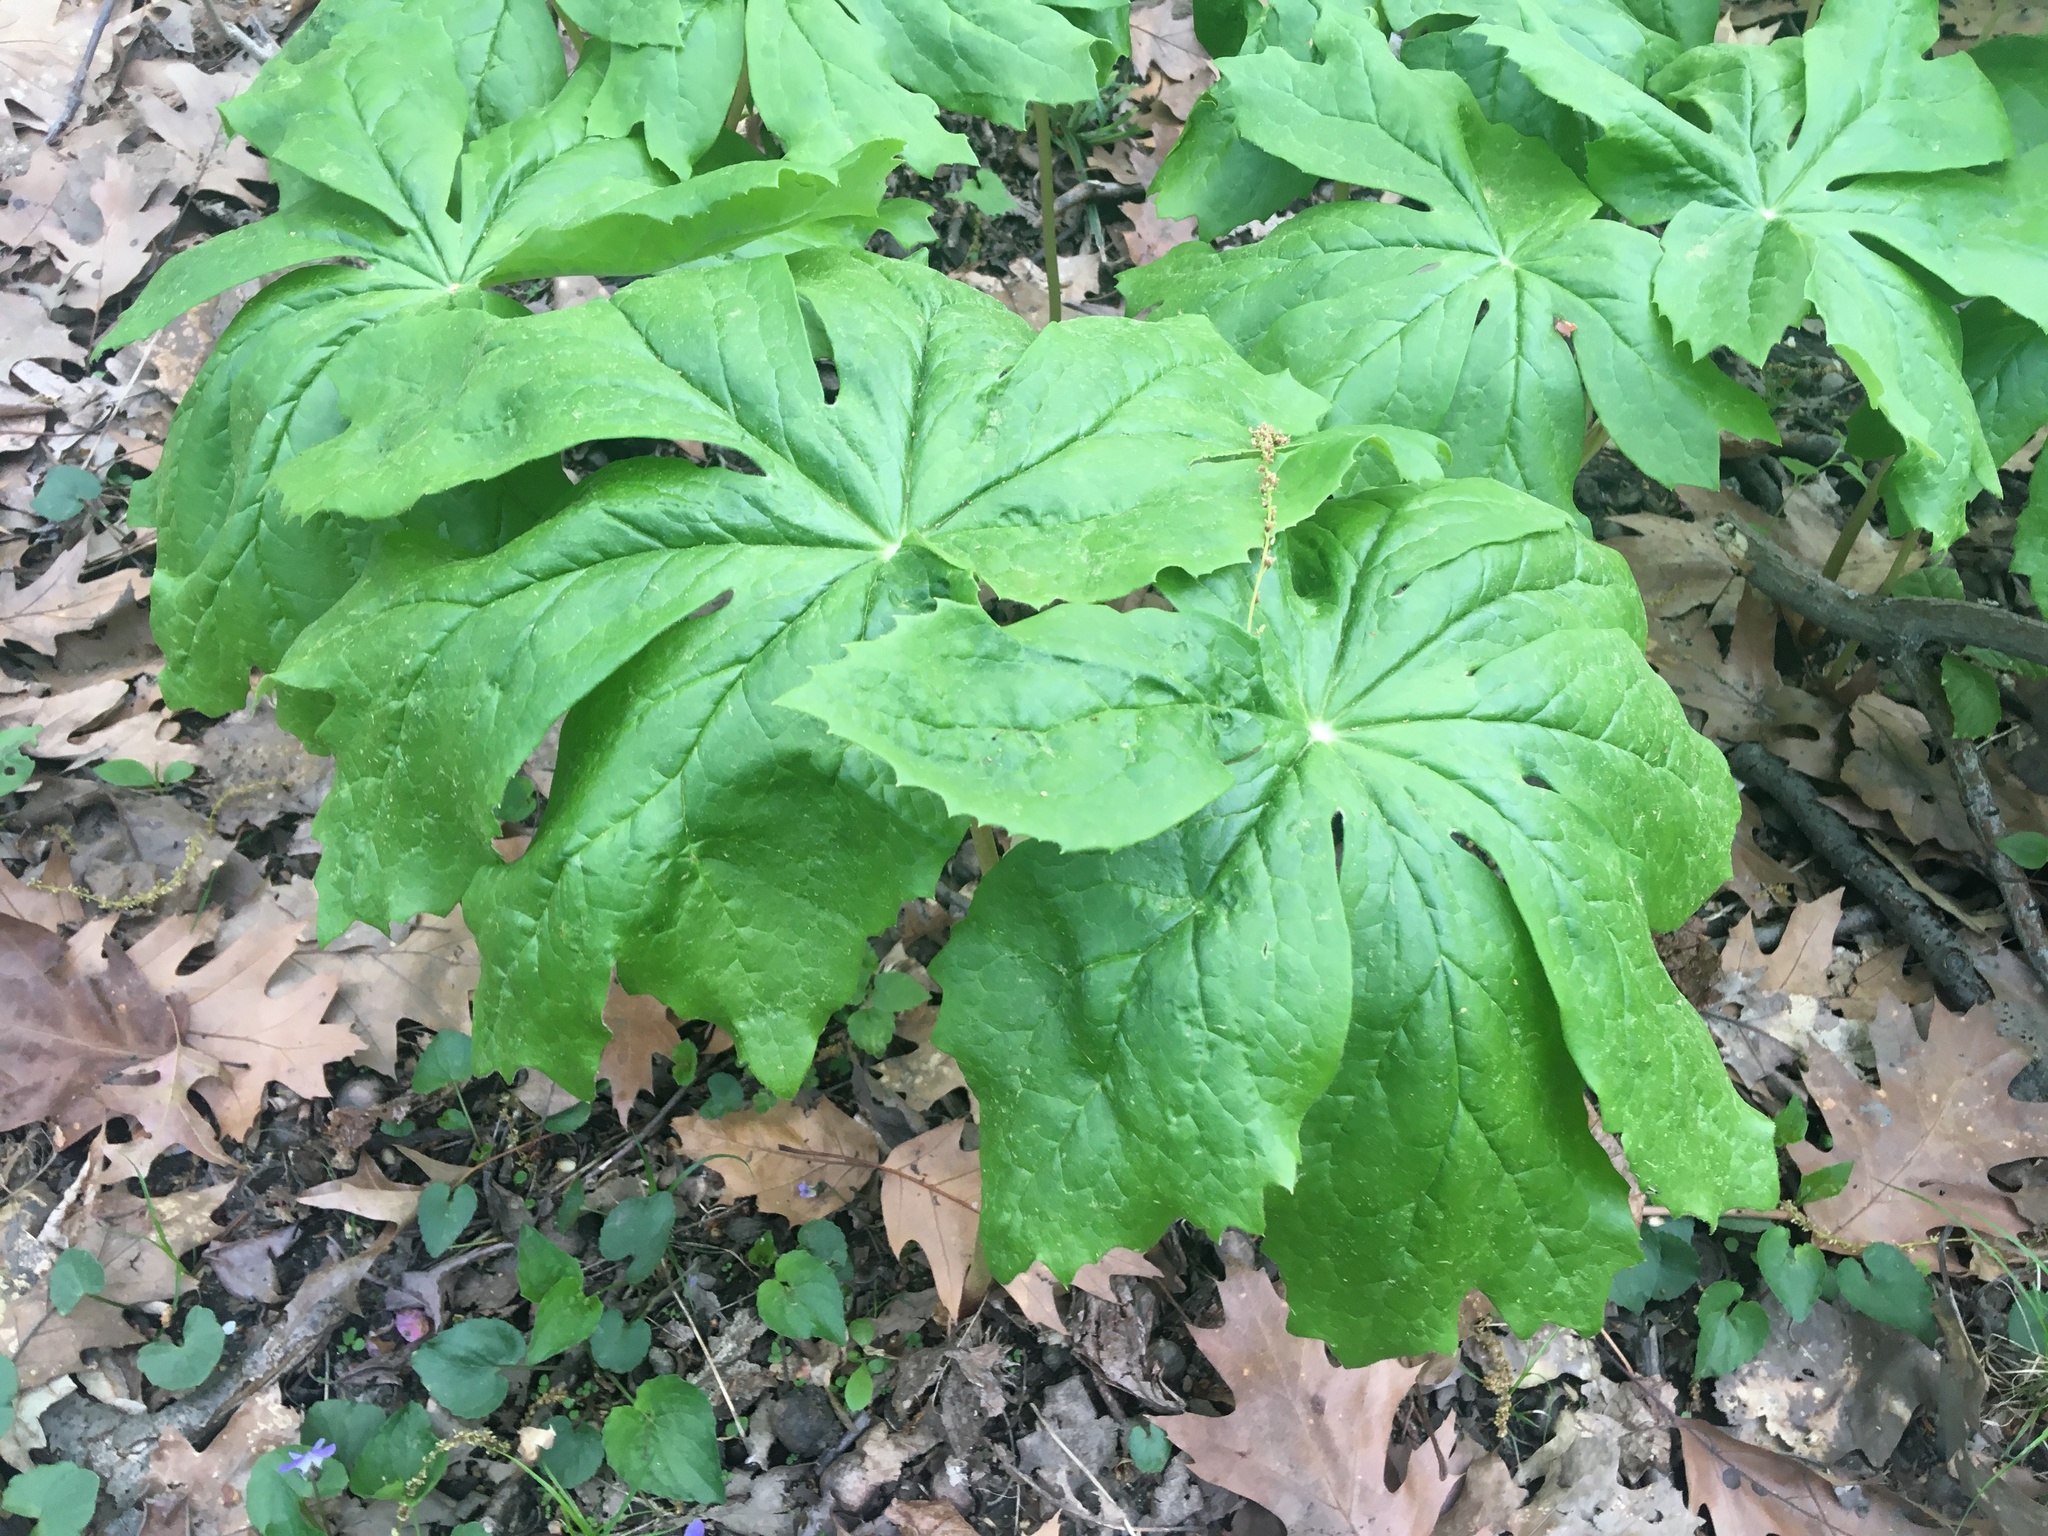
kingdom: Plantae
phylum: Tracheophyta
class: Magnoliopsida
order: Ranunculales
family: Berberidaceae
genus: Podophyllum
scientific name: Podophyllum peltatum
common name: Wild mandrake
